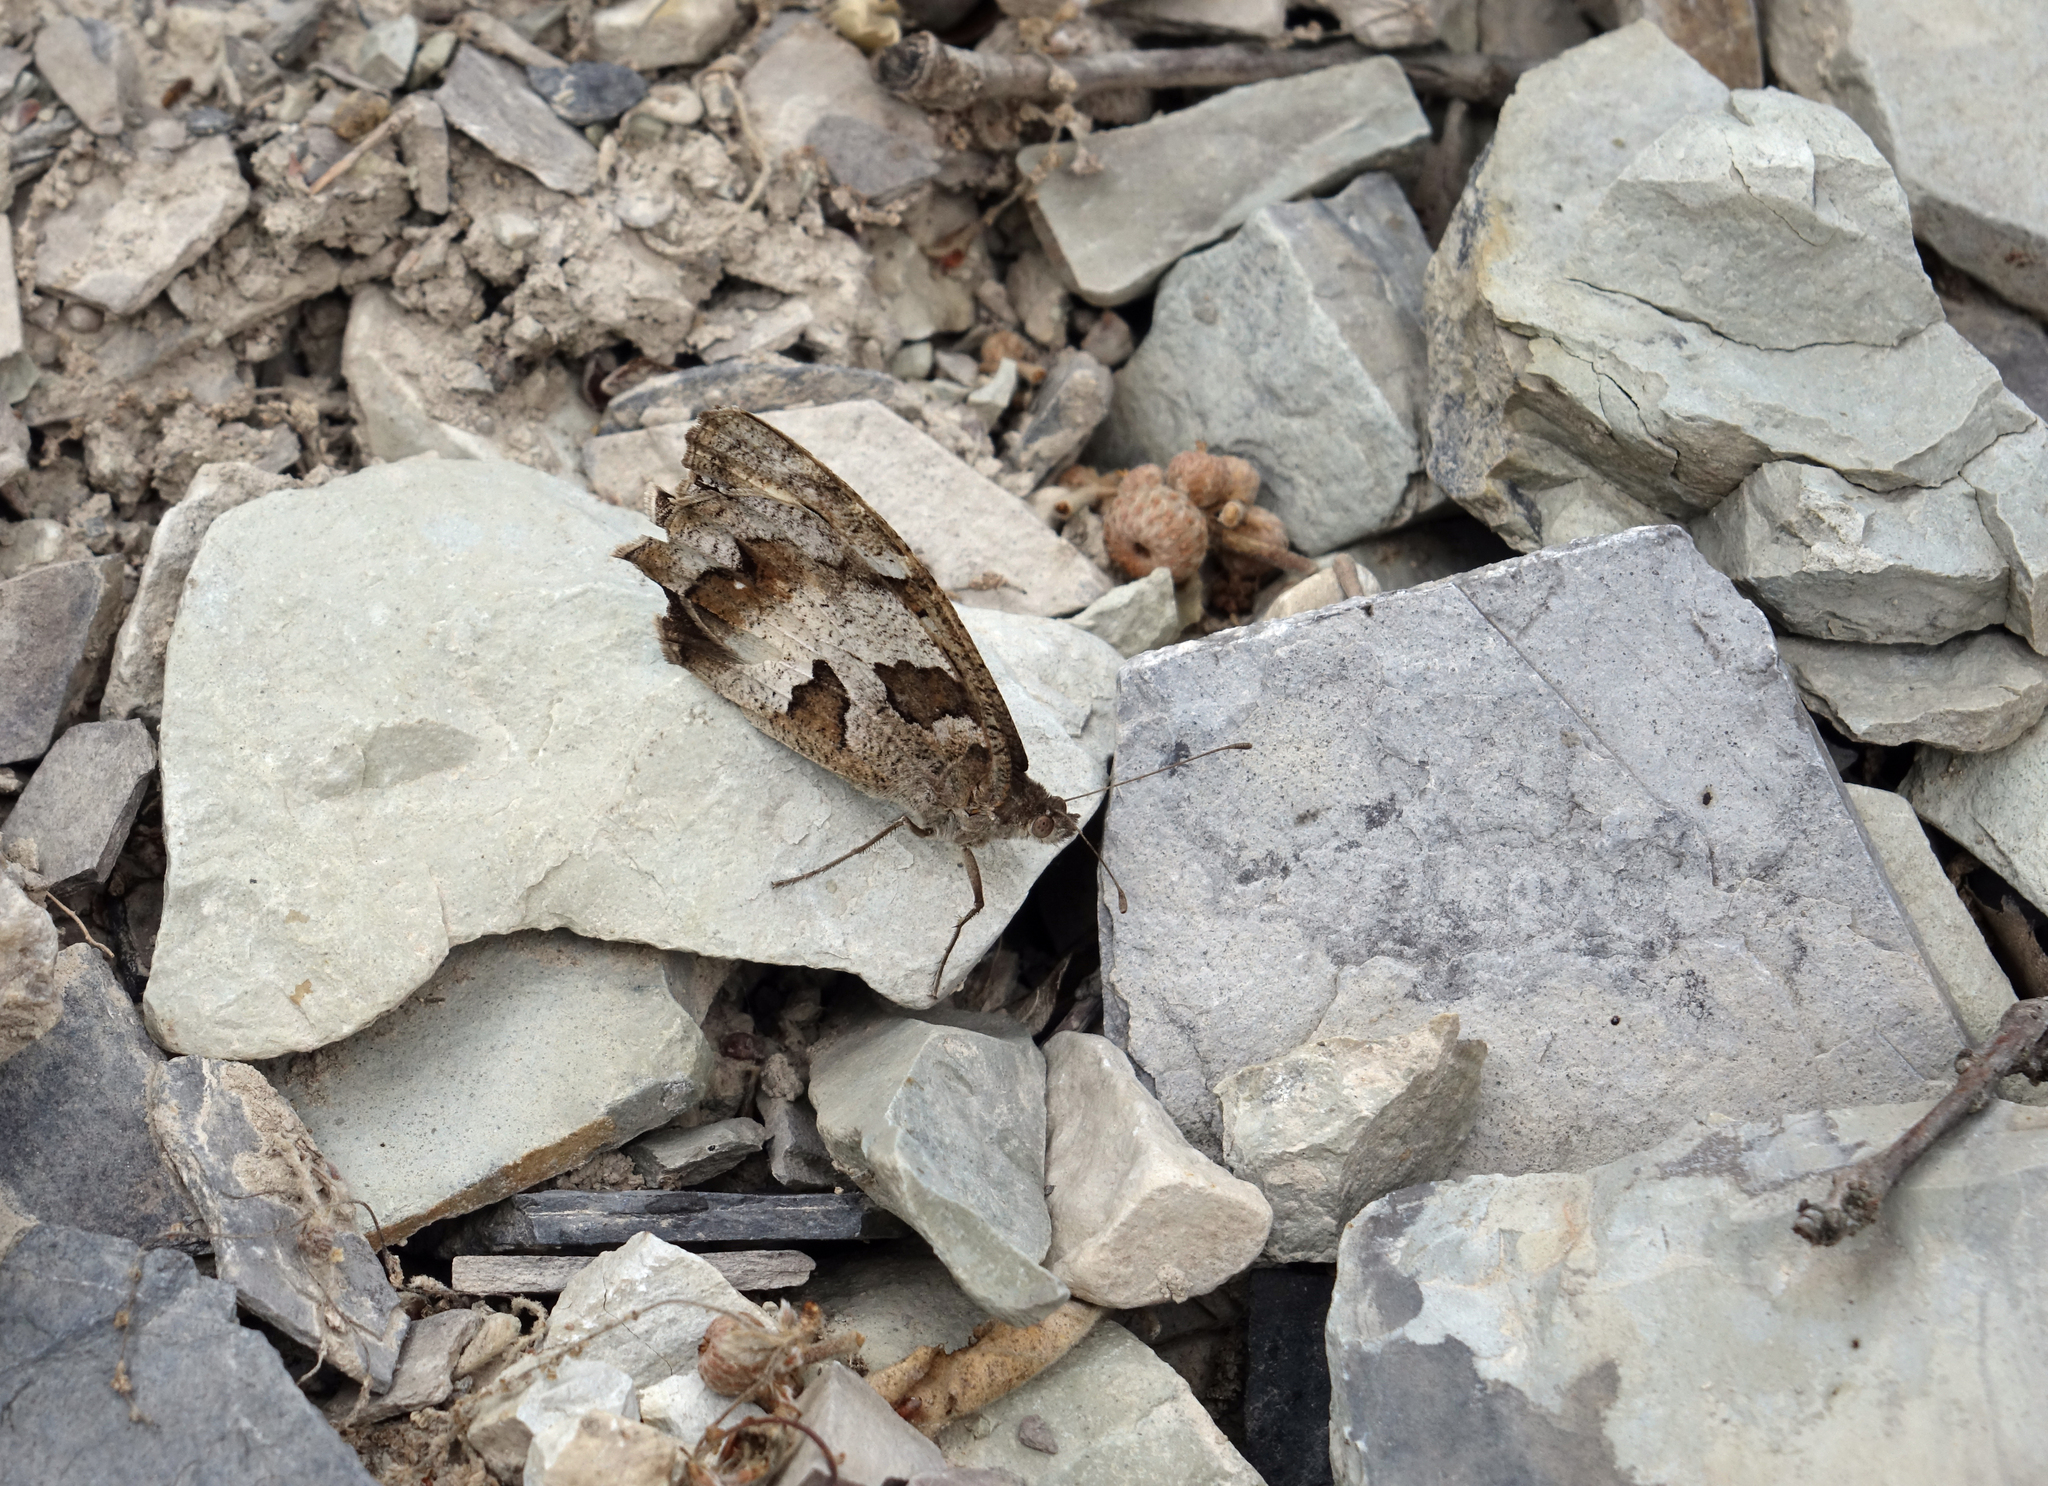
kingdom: Animalia
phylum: Arthropoda
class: Insecta
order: Lepidoptera
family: Nymphalidae
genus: Satyrus
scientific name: Satyrus briseis
